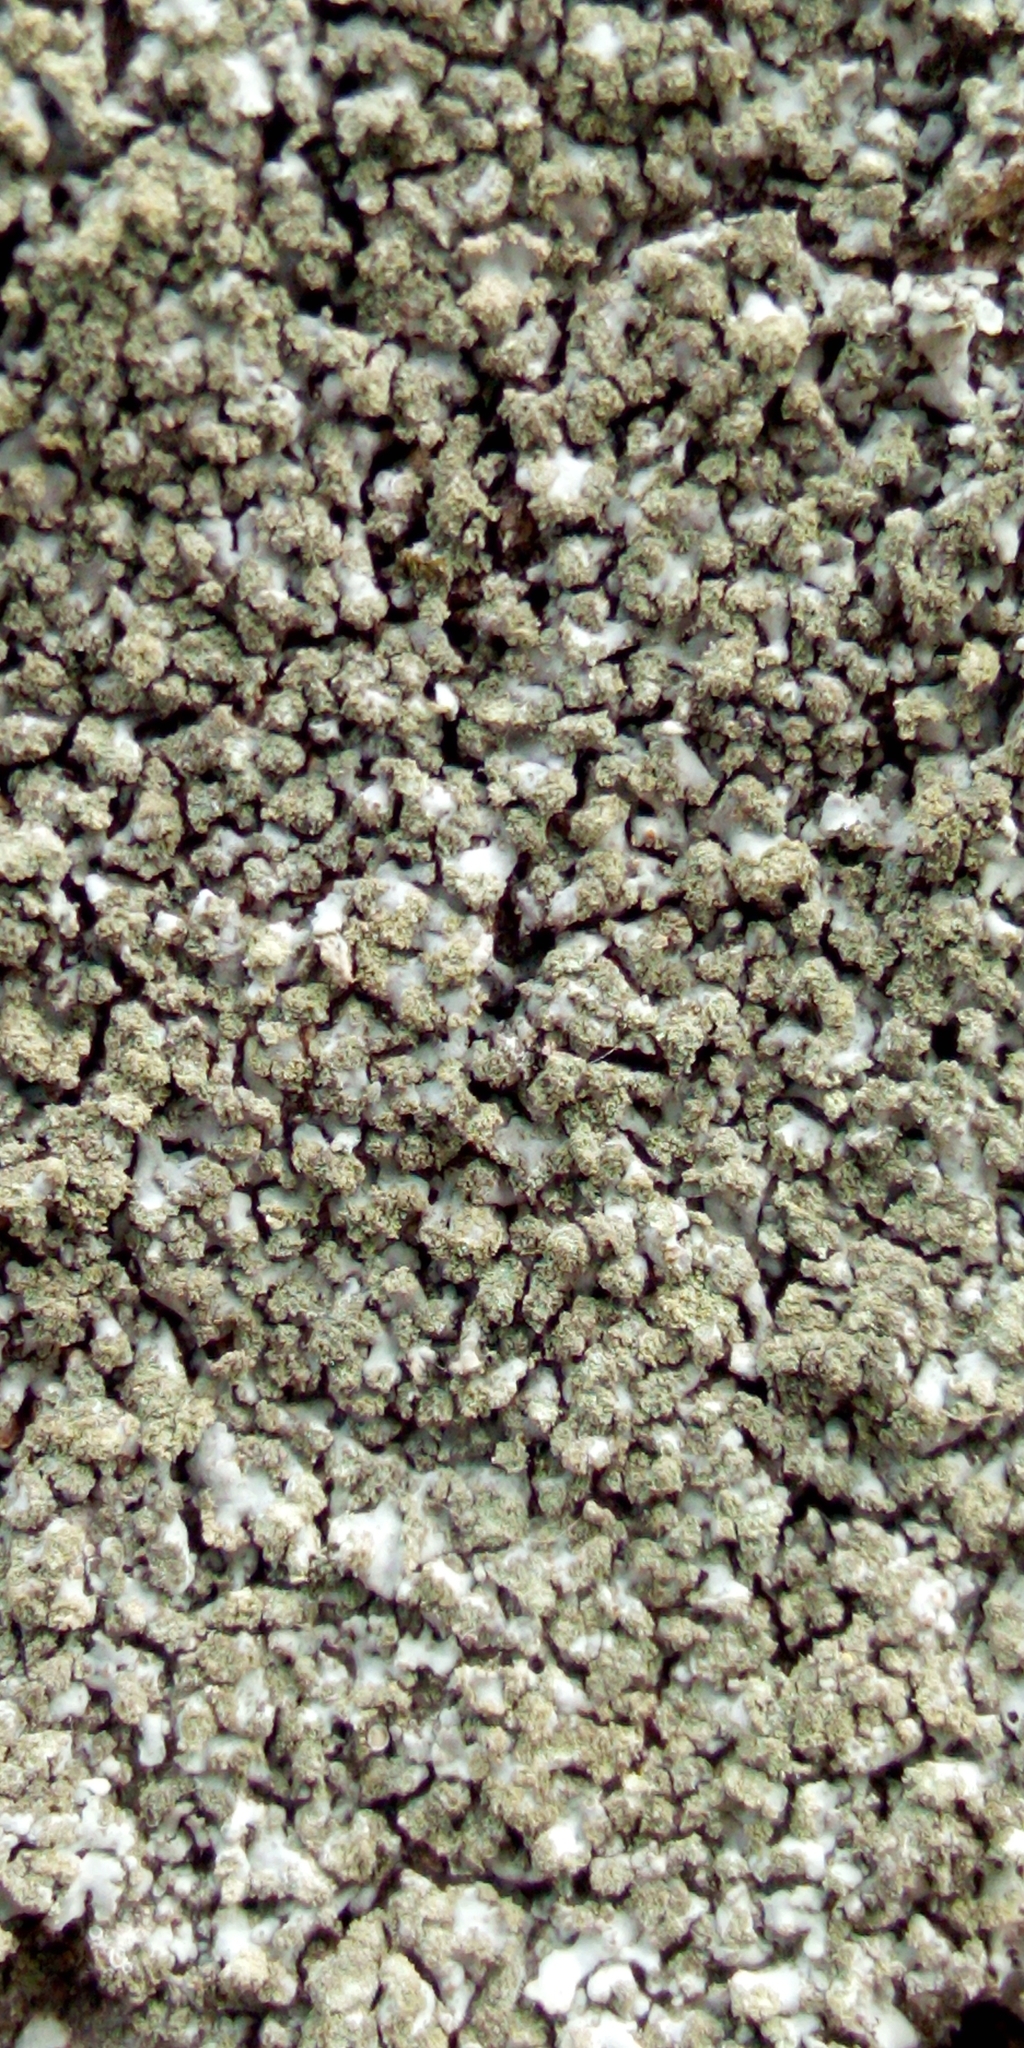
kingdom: Fungi
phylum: Ascomycota
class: Lecanoromycetes
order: Caliciales
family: Physciaceae
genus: Phaeophyscia
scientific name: Phaeophyscia orbicularis
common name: Mealy shadow lichen
